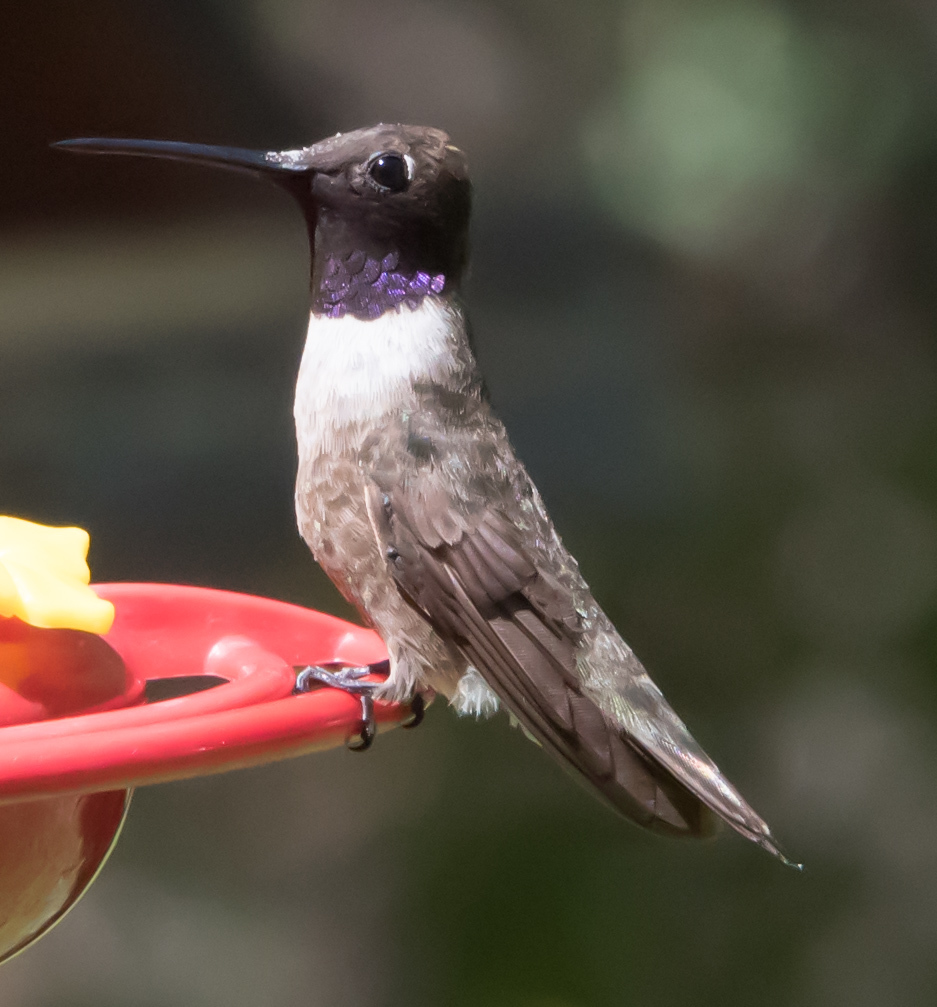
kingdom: Animalia
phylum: Chordata
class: Aves
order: Apodiformes
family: Trochilidae
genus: Archilochus
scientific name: Archilochus alexandri
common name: Black-chinned hummingbird
